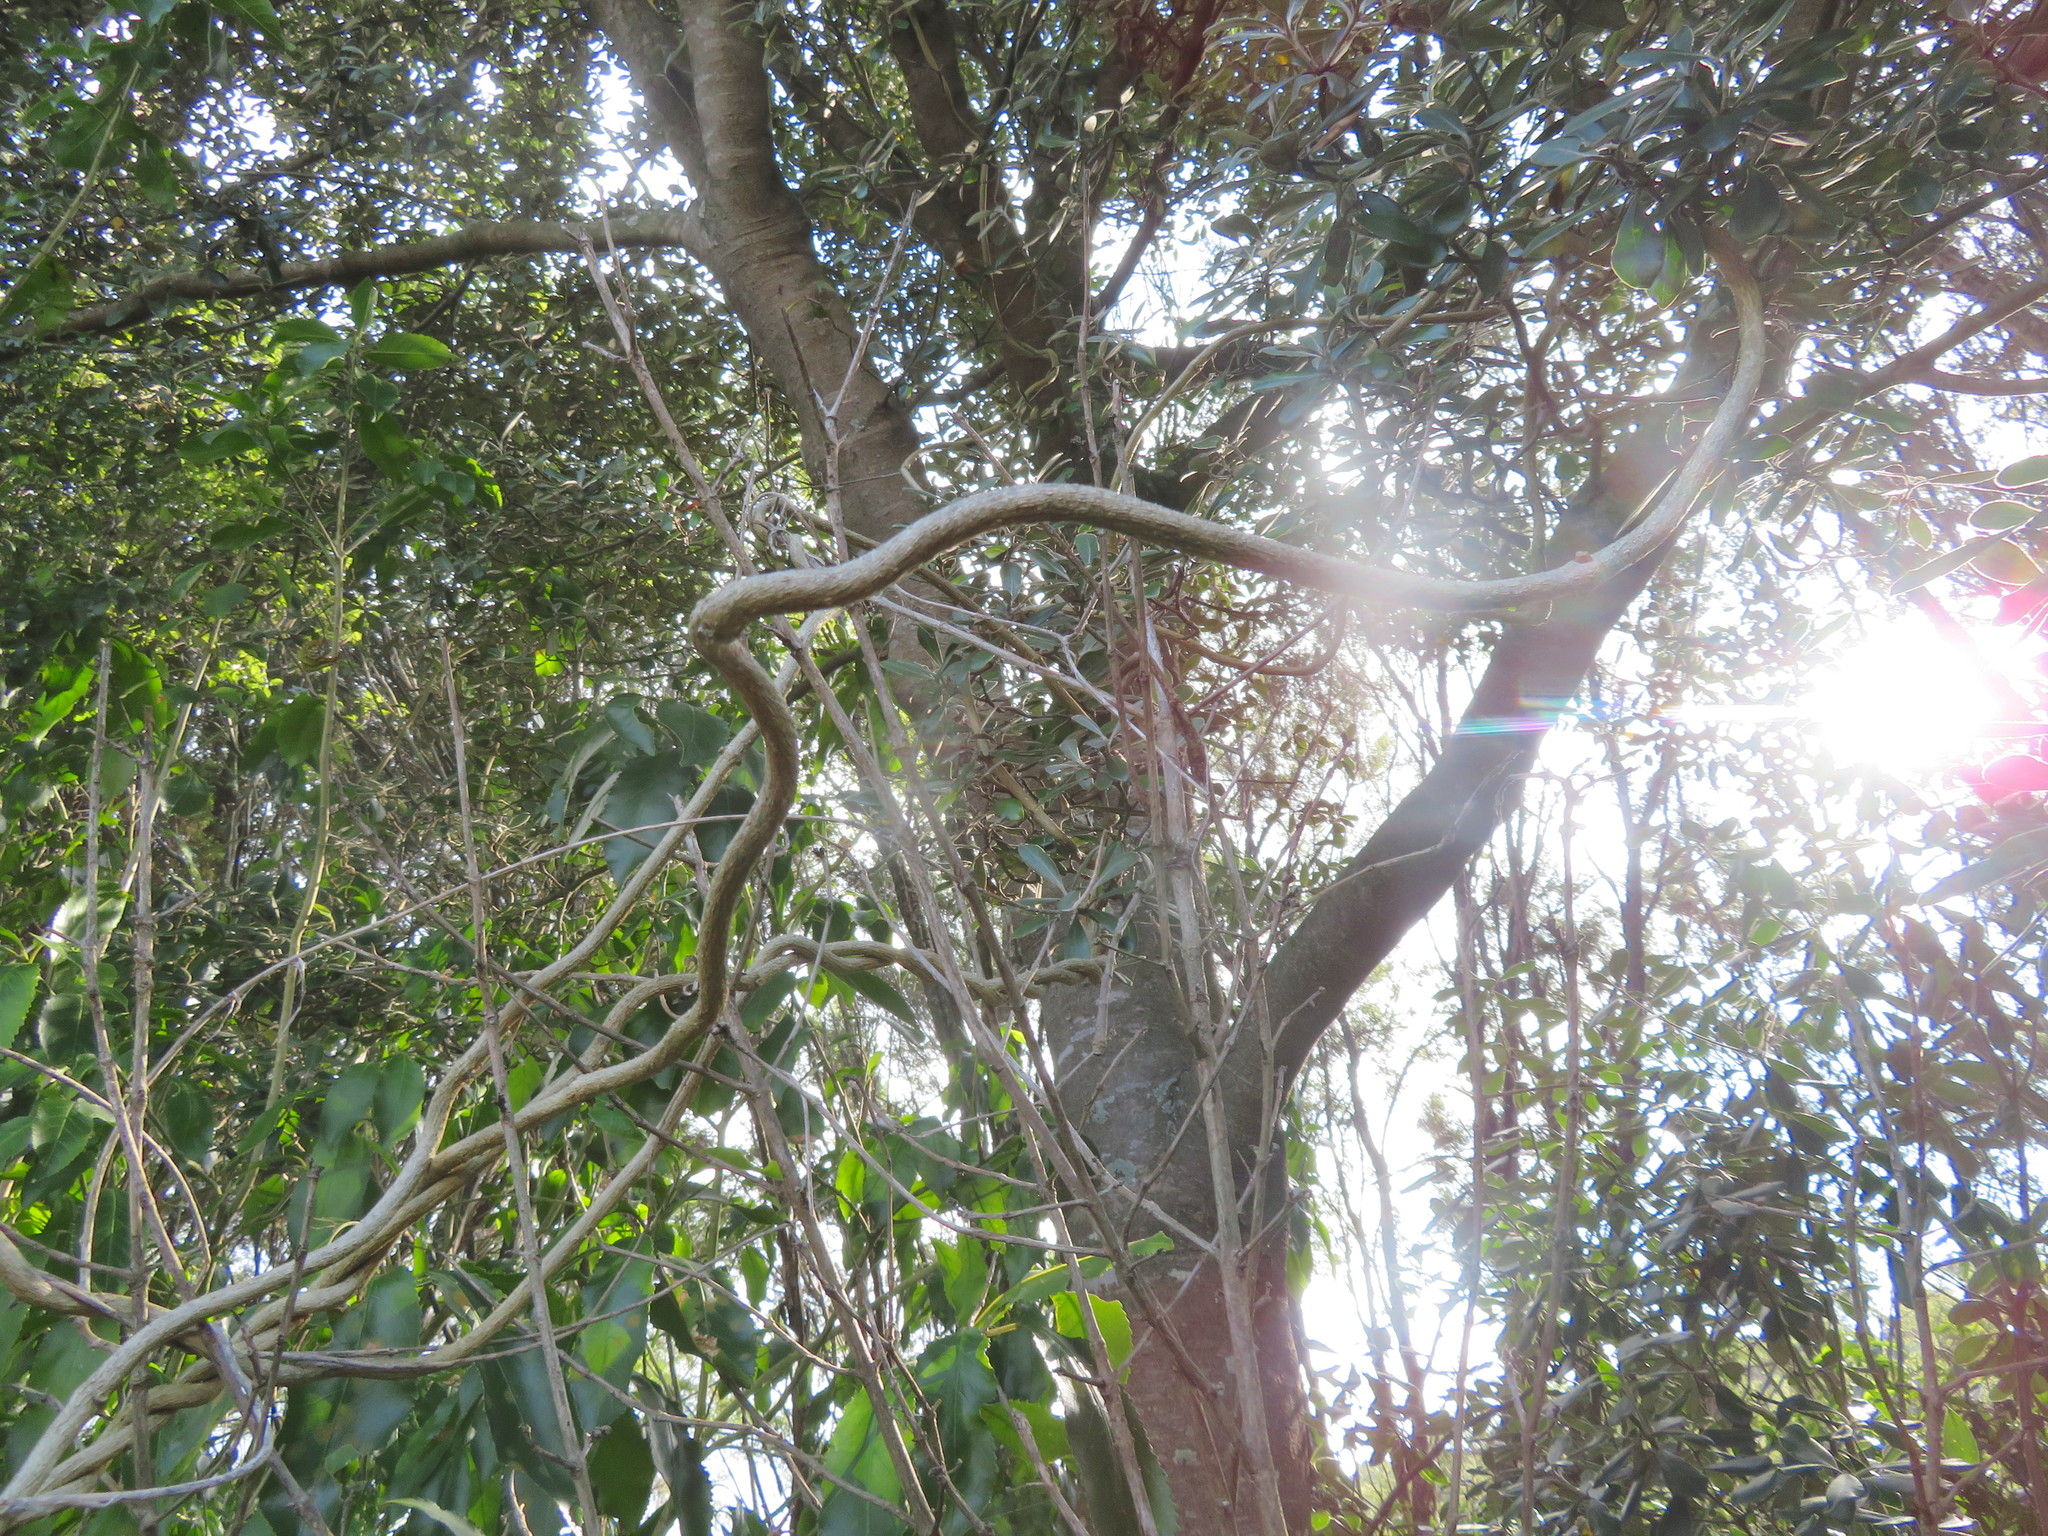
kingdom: Plantae
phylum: Tracheophyta
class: Magnoliopsida
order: Apiales
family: Pittosporaceae
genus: Pittosporum
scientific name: Pittosporum crassifolium
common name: Karo
